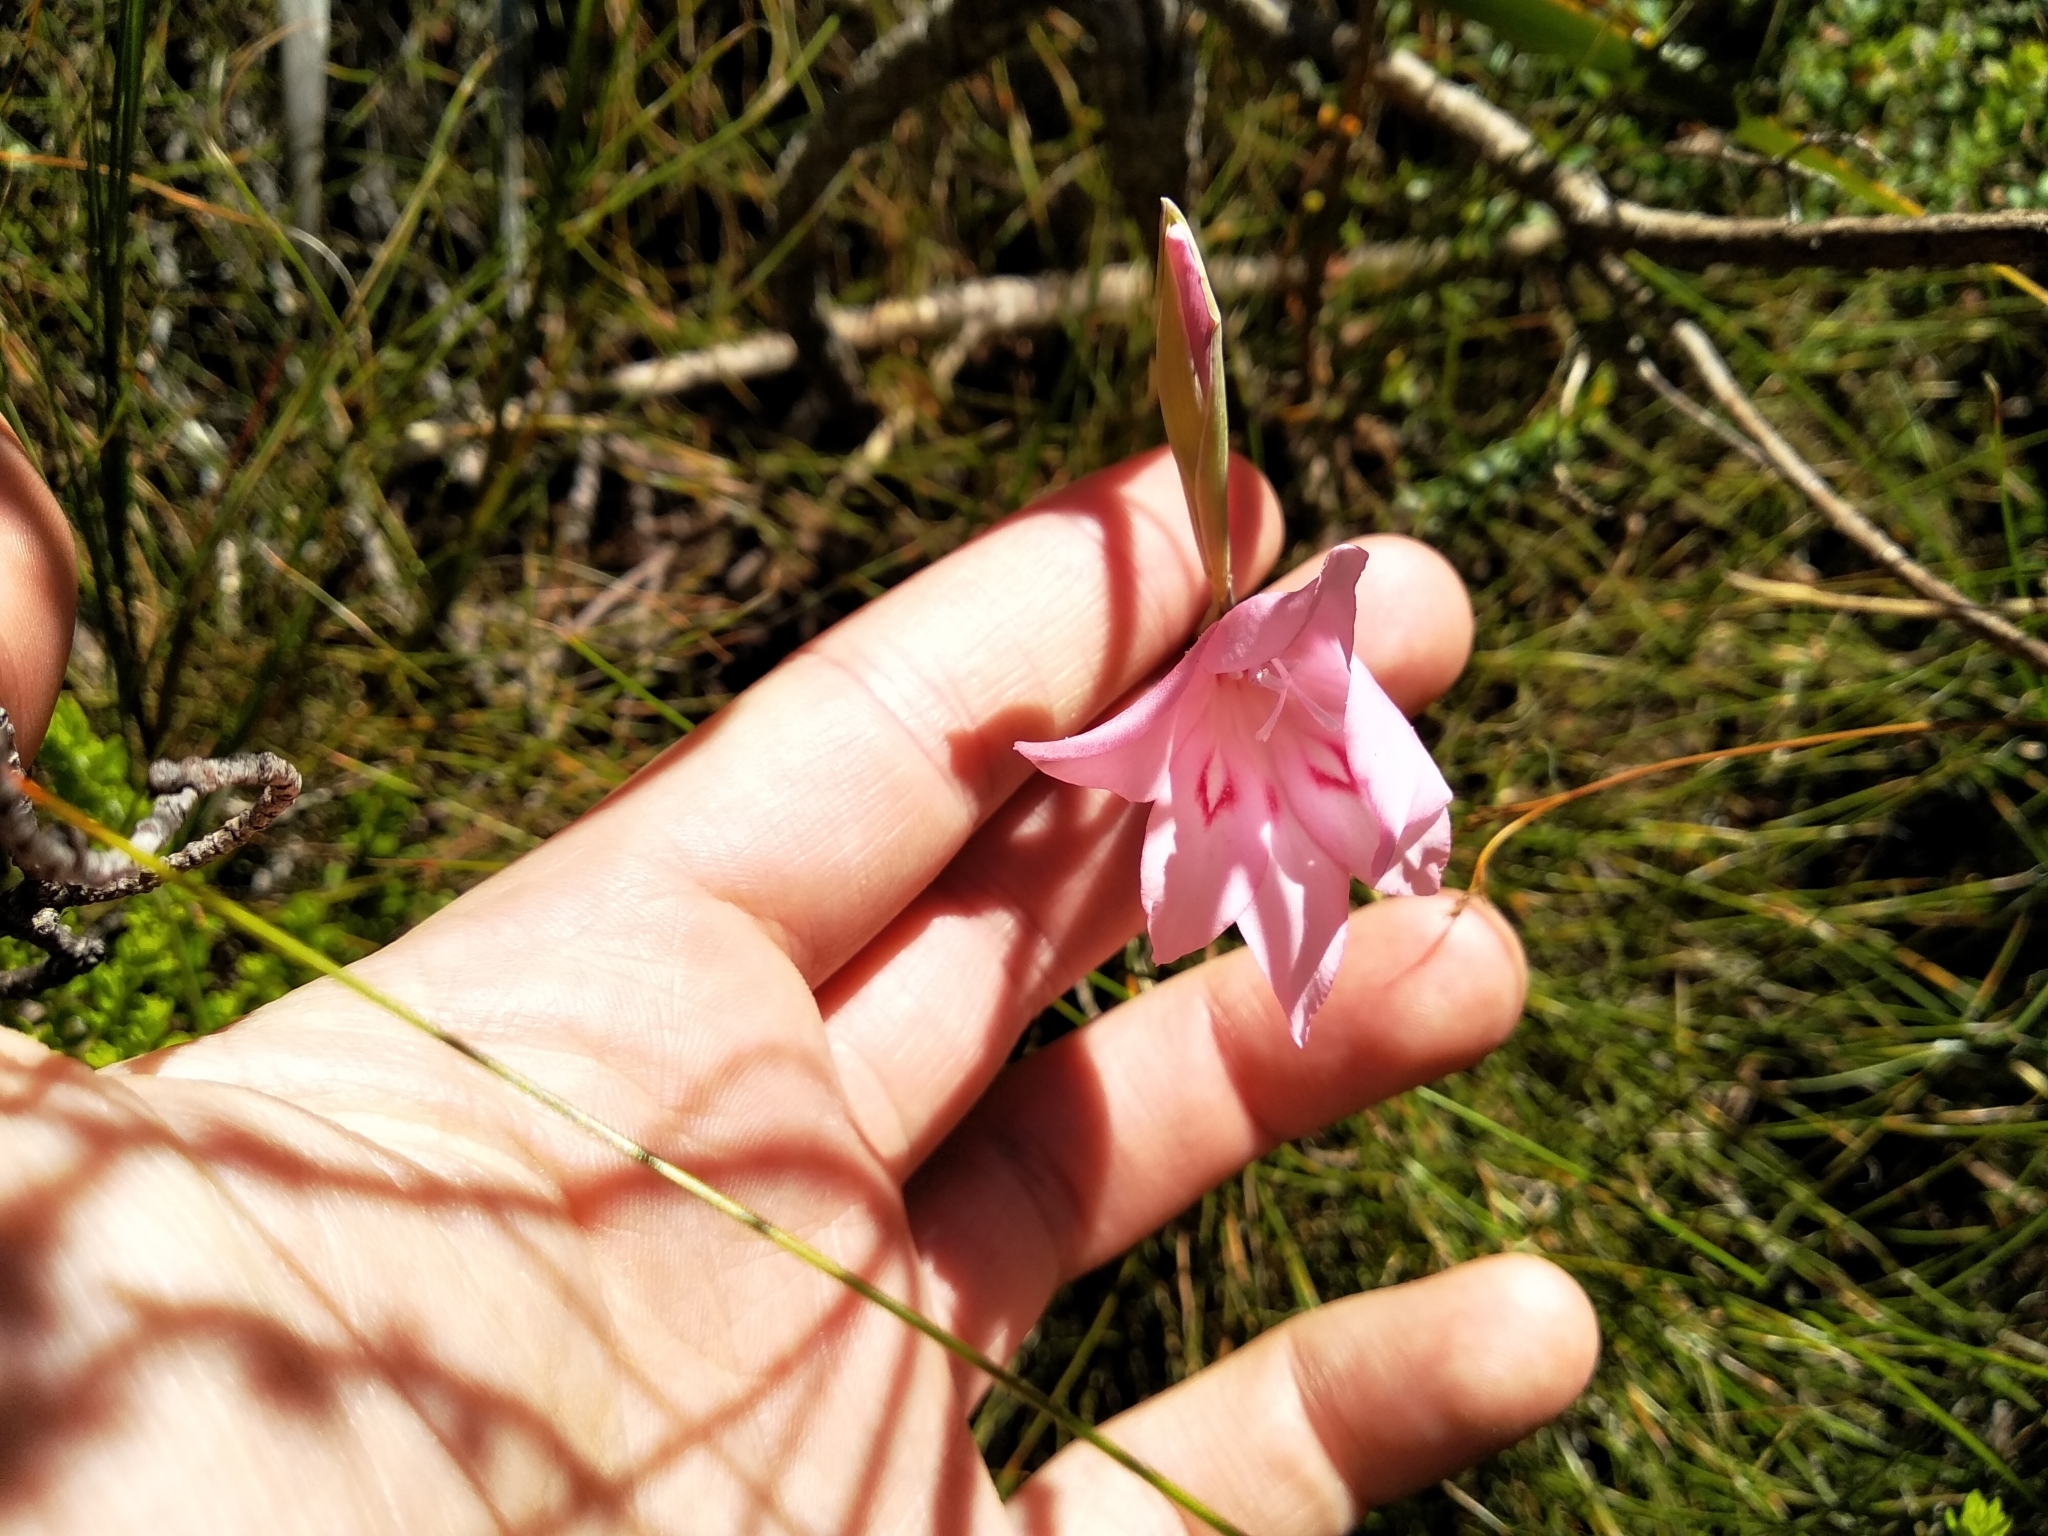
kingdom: Plantae
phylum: Tracheophyta
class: Liliopsida
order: Asparagales
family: Iridaceae
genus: Gladiolus
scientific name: Gladiolus pappei
